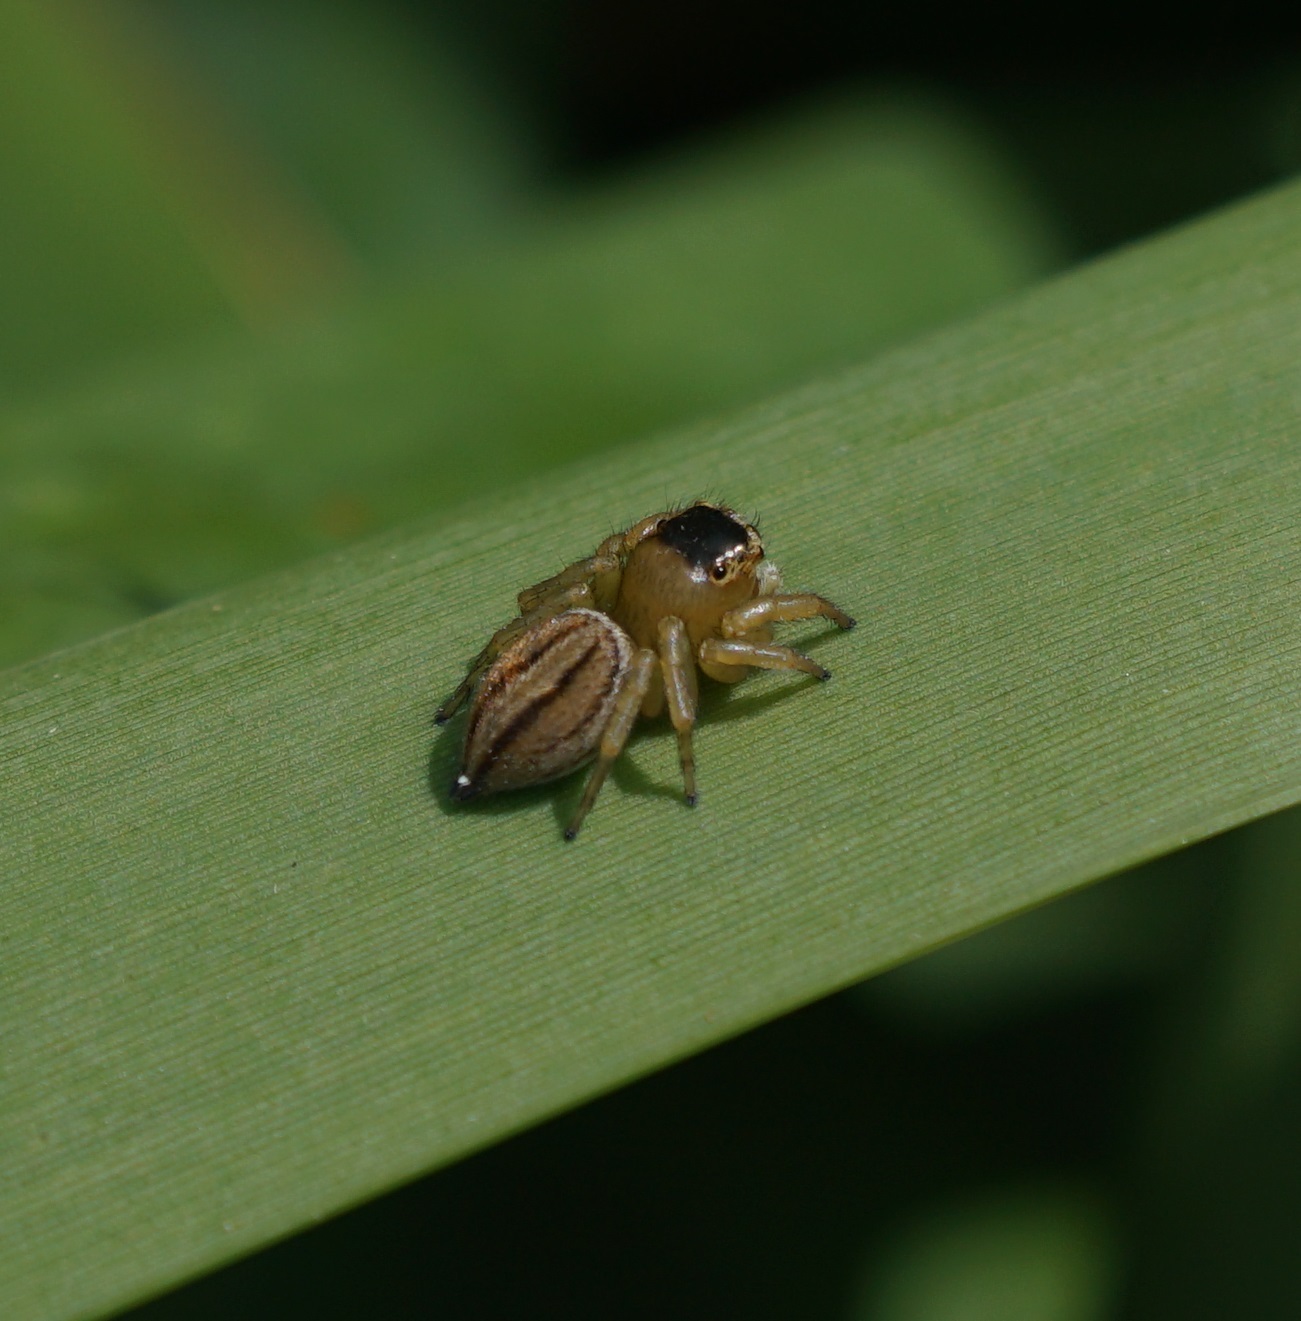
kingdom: Animalia
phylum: Arthropoda
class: Arachnida
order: Araneae
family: Salticidae
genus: Maratus
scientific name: Maratus scutulatus
